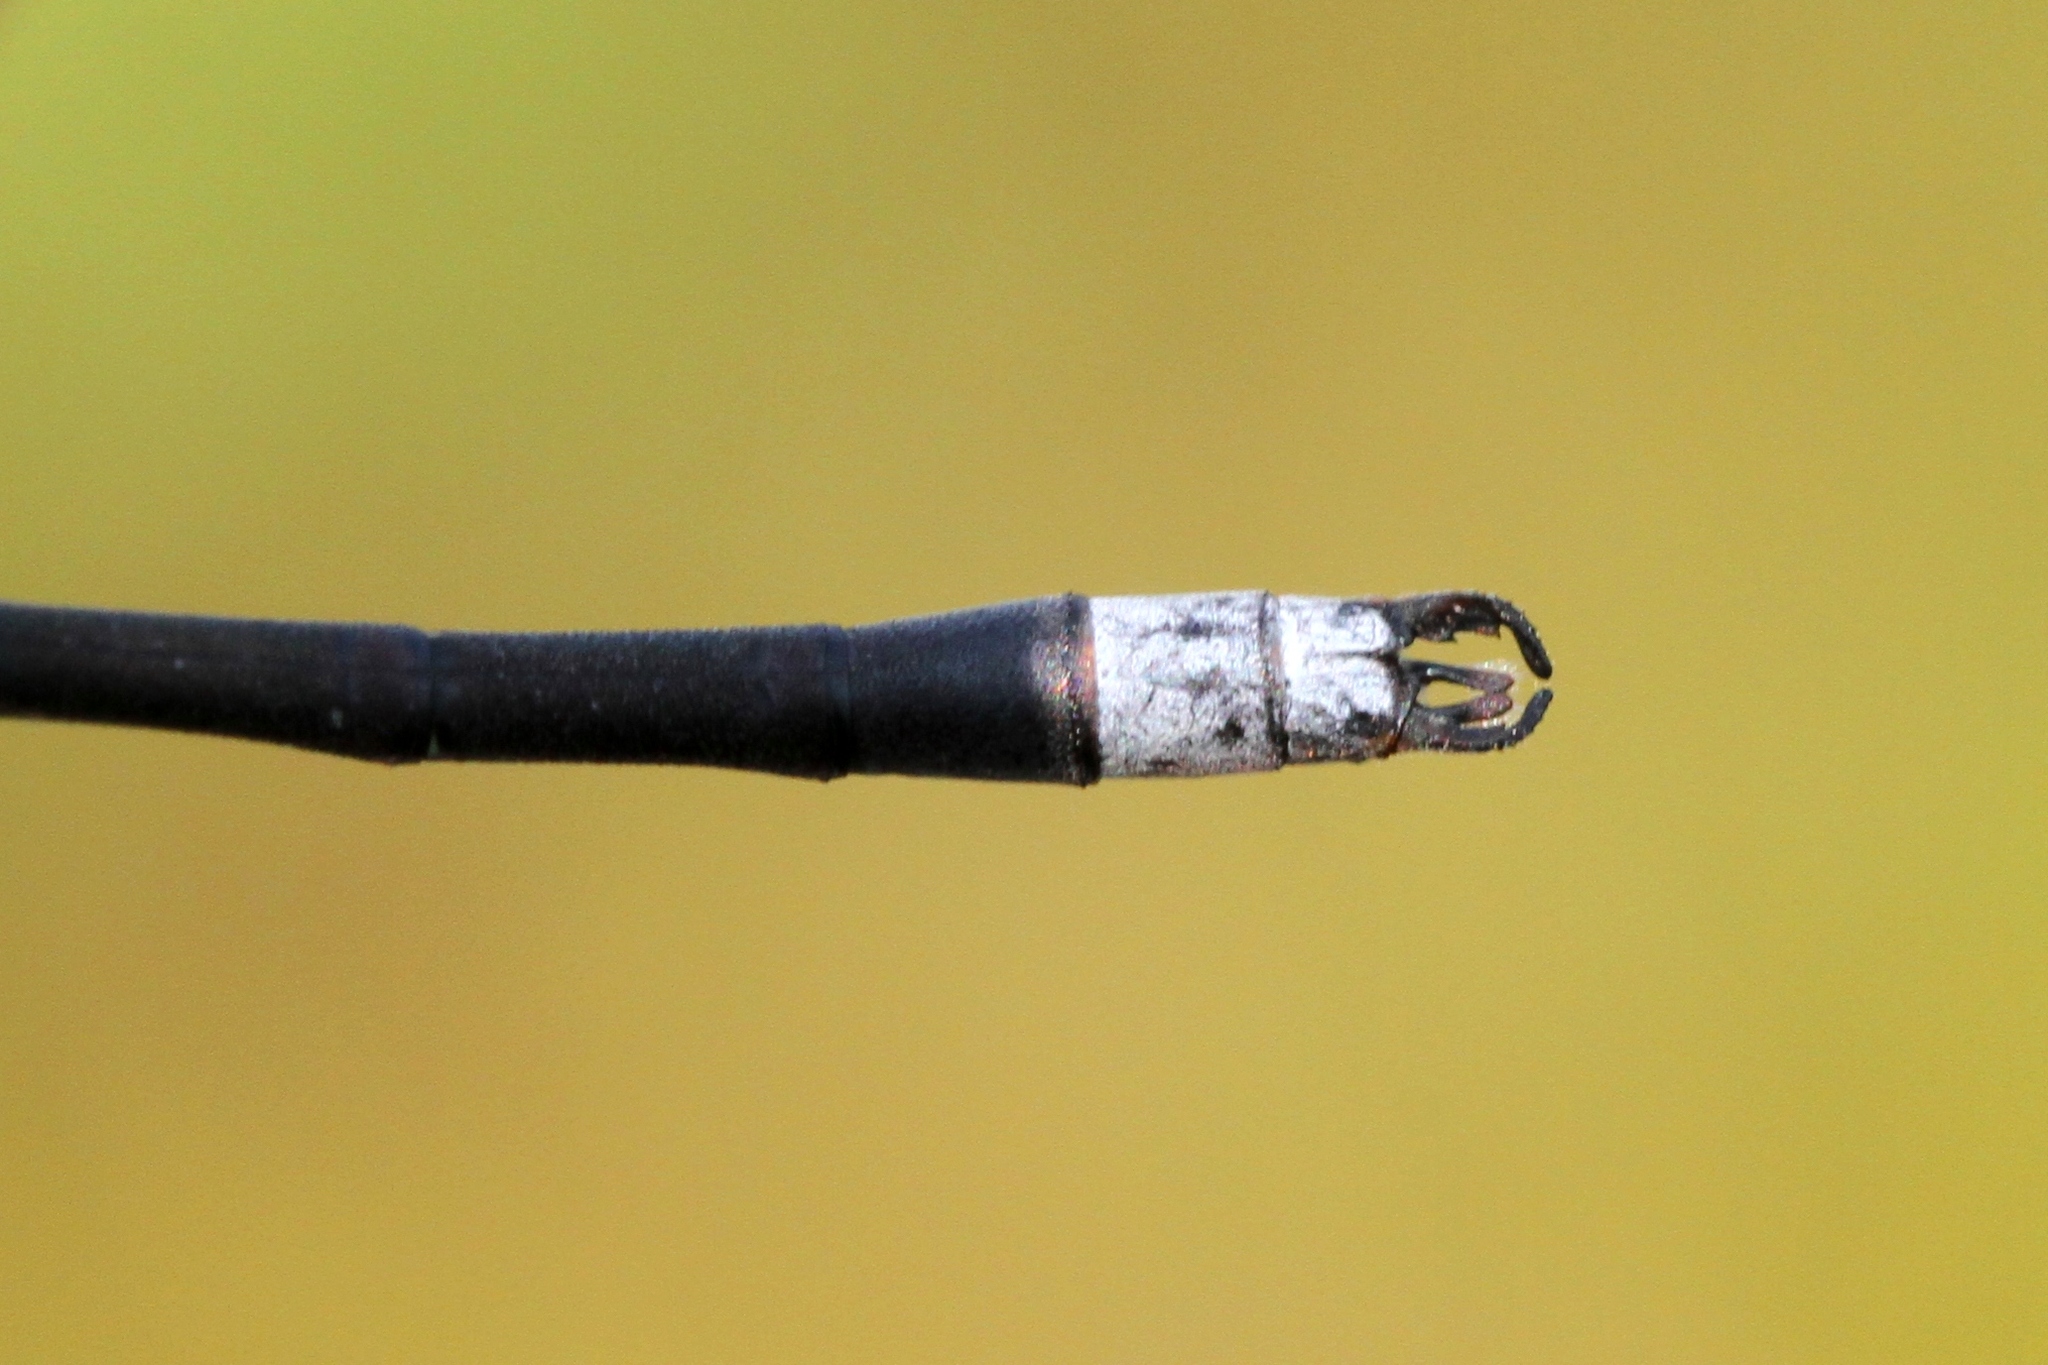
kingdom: Animalia
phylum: Arthropoda
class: Insecta
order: Odonata
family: Lestidae
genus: Lestes
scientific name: Lestes disjunctus
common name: Northern spreadwing
